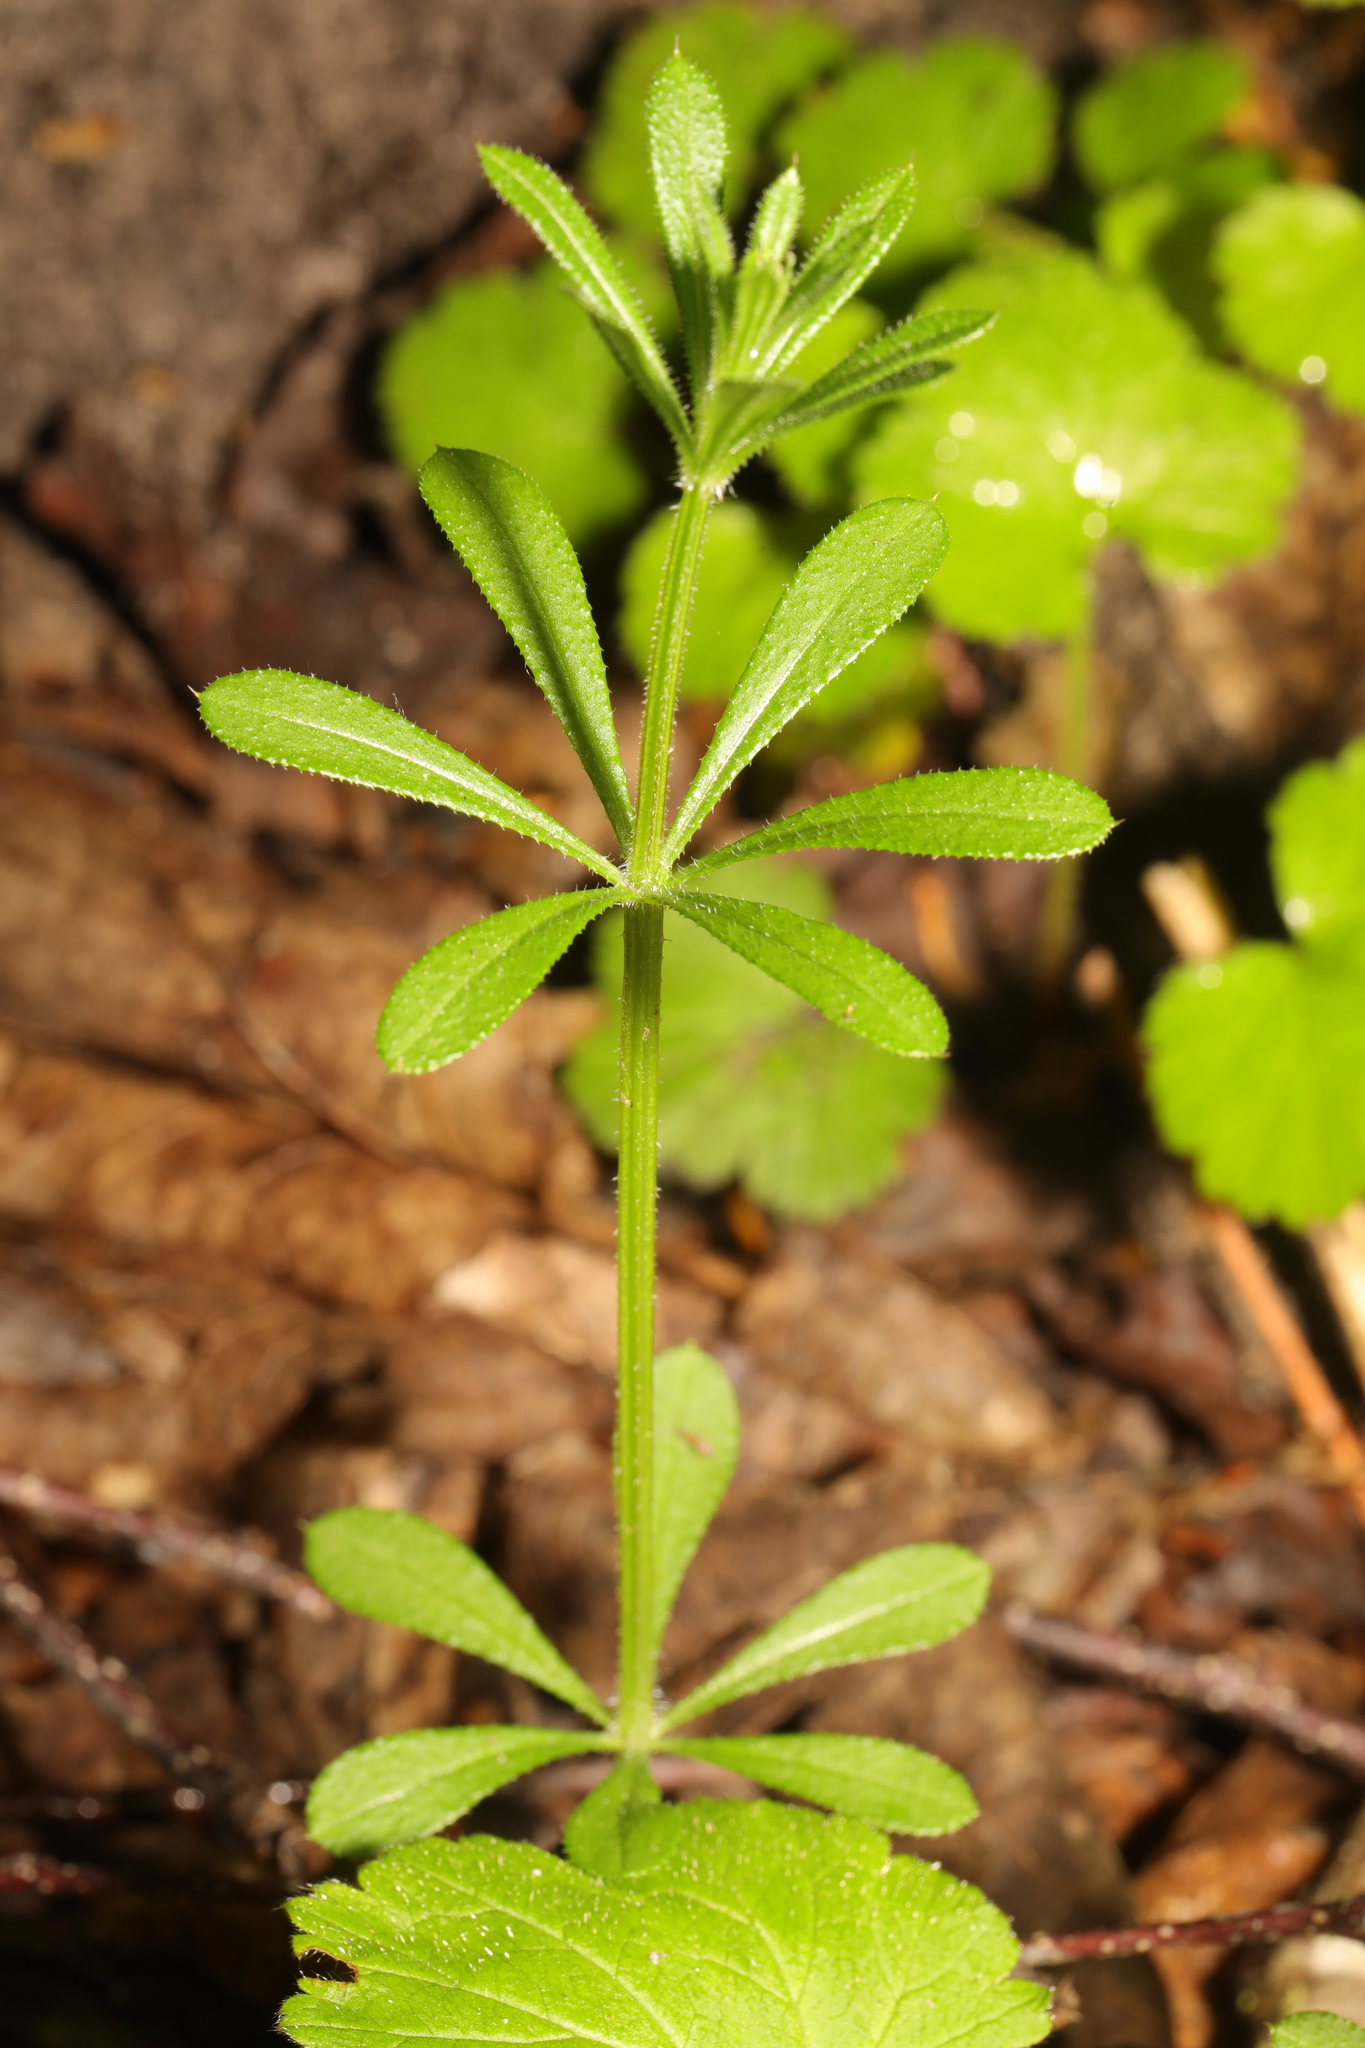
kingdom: Plantae
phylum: Tracheophyta
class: Magnoliopsida
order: Gentianales
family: Rubiaceae
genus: Galium
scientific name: Galium aparine
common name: Cleavers
